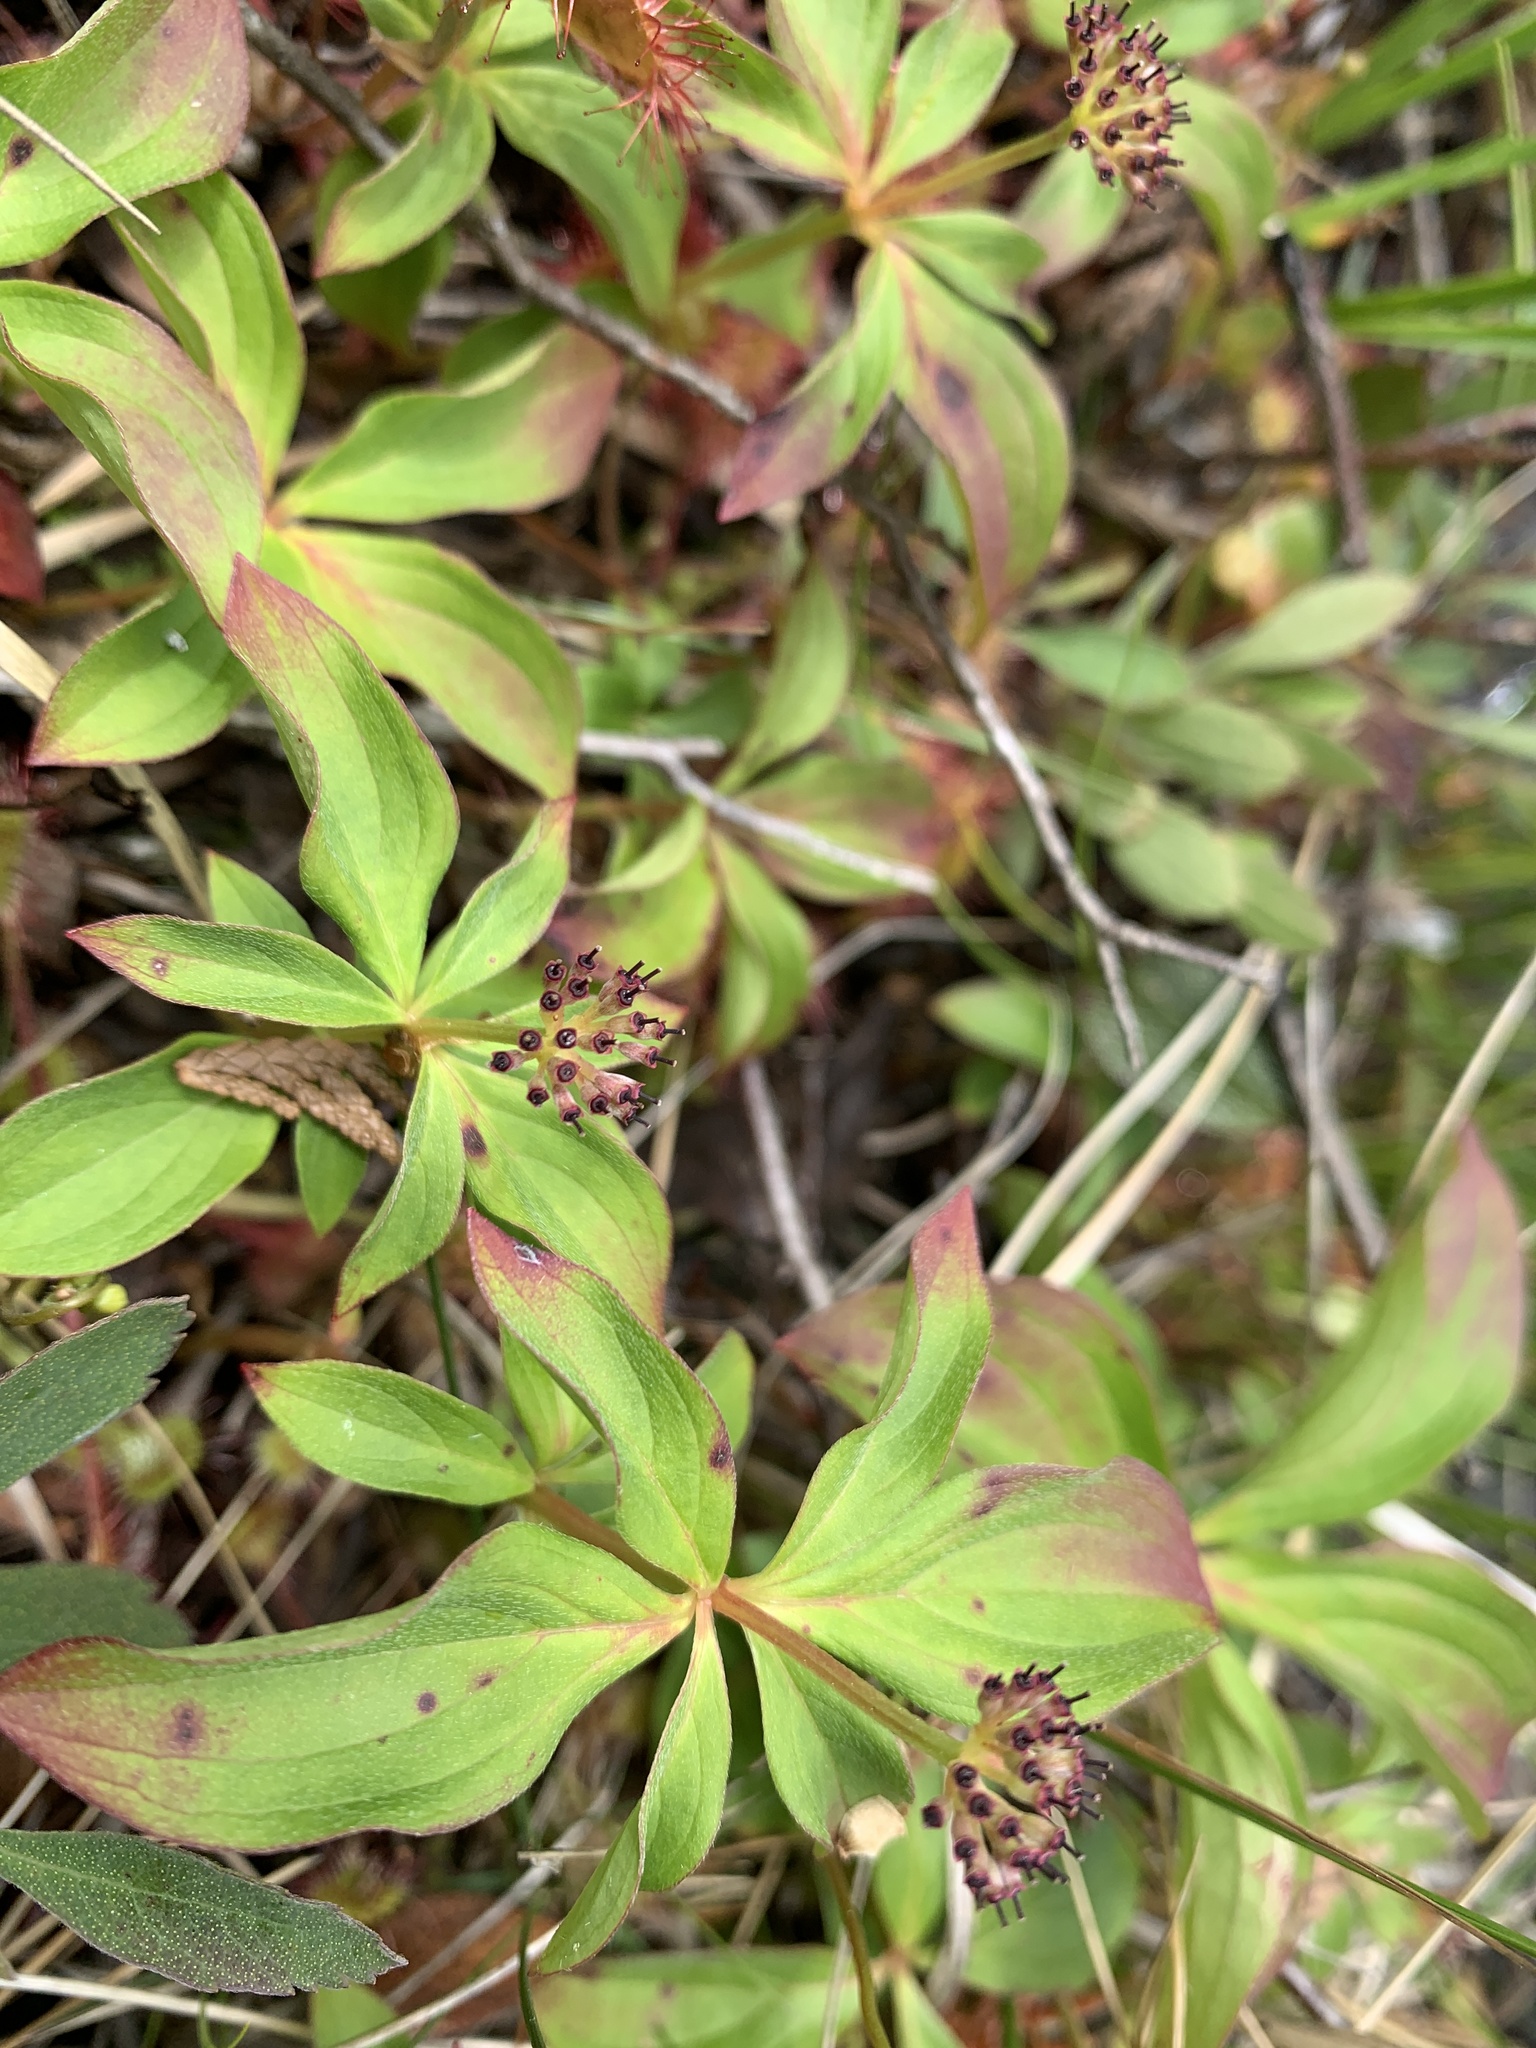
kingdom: Plantae
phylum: Tracheophyta
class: Magnoliopsida
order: Cornales
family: Cornaceae
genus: Cornus
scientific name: Cornus unalaschkensis
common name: Alaska bunchberry
